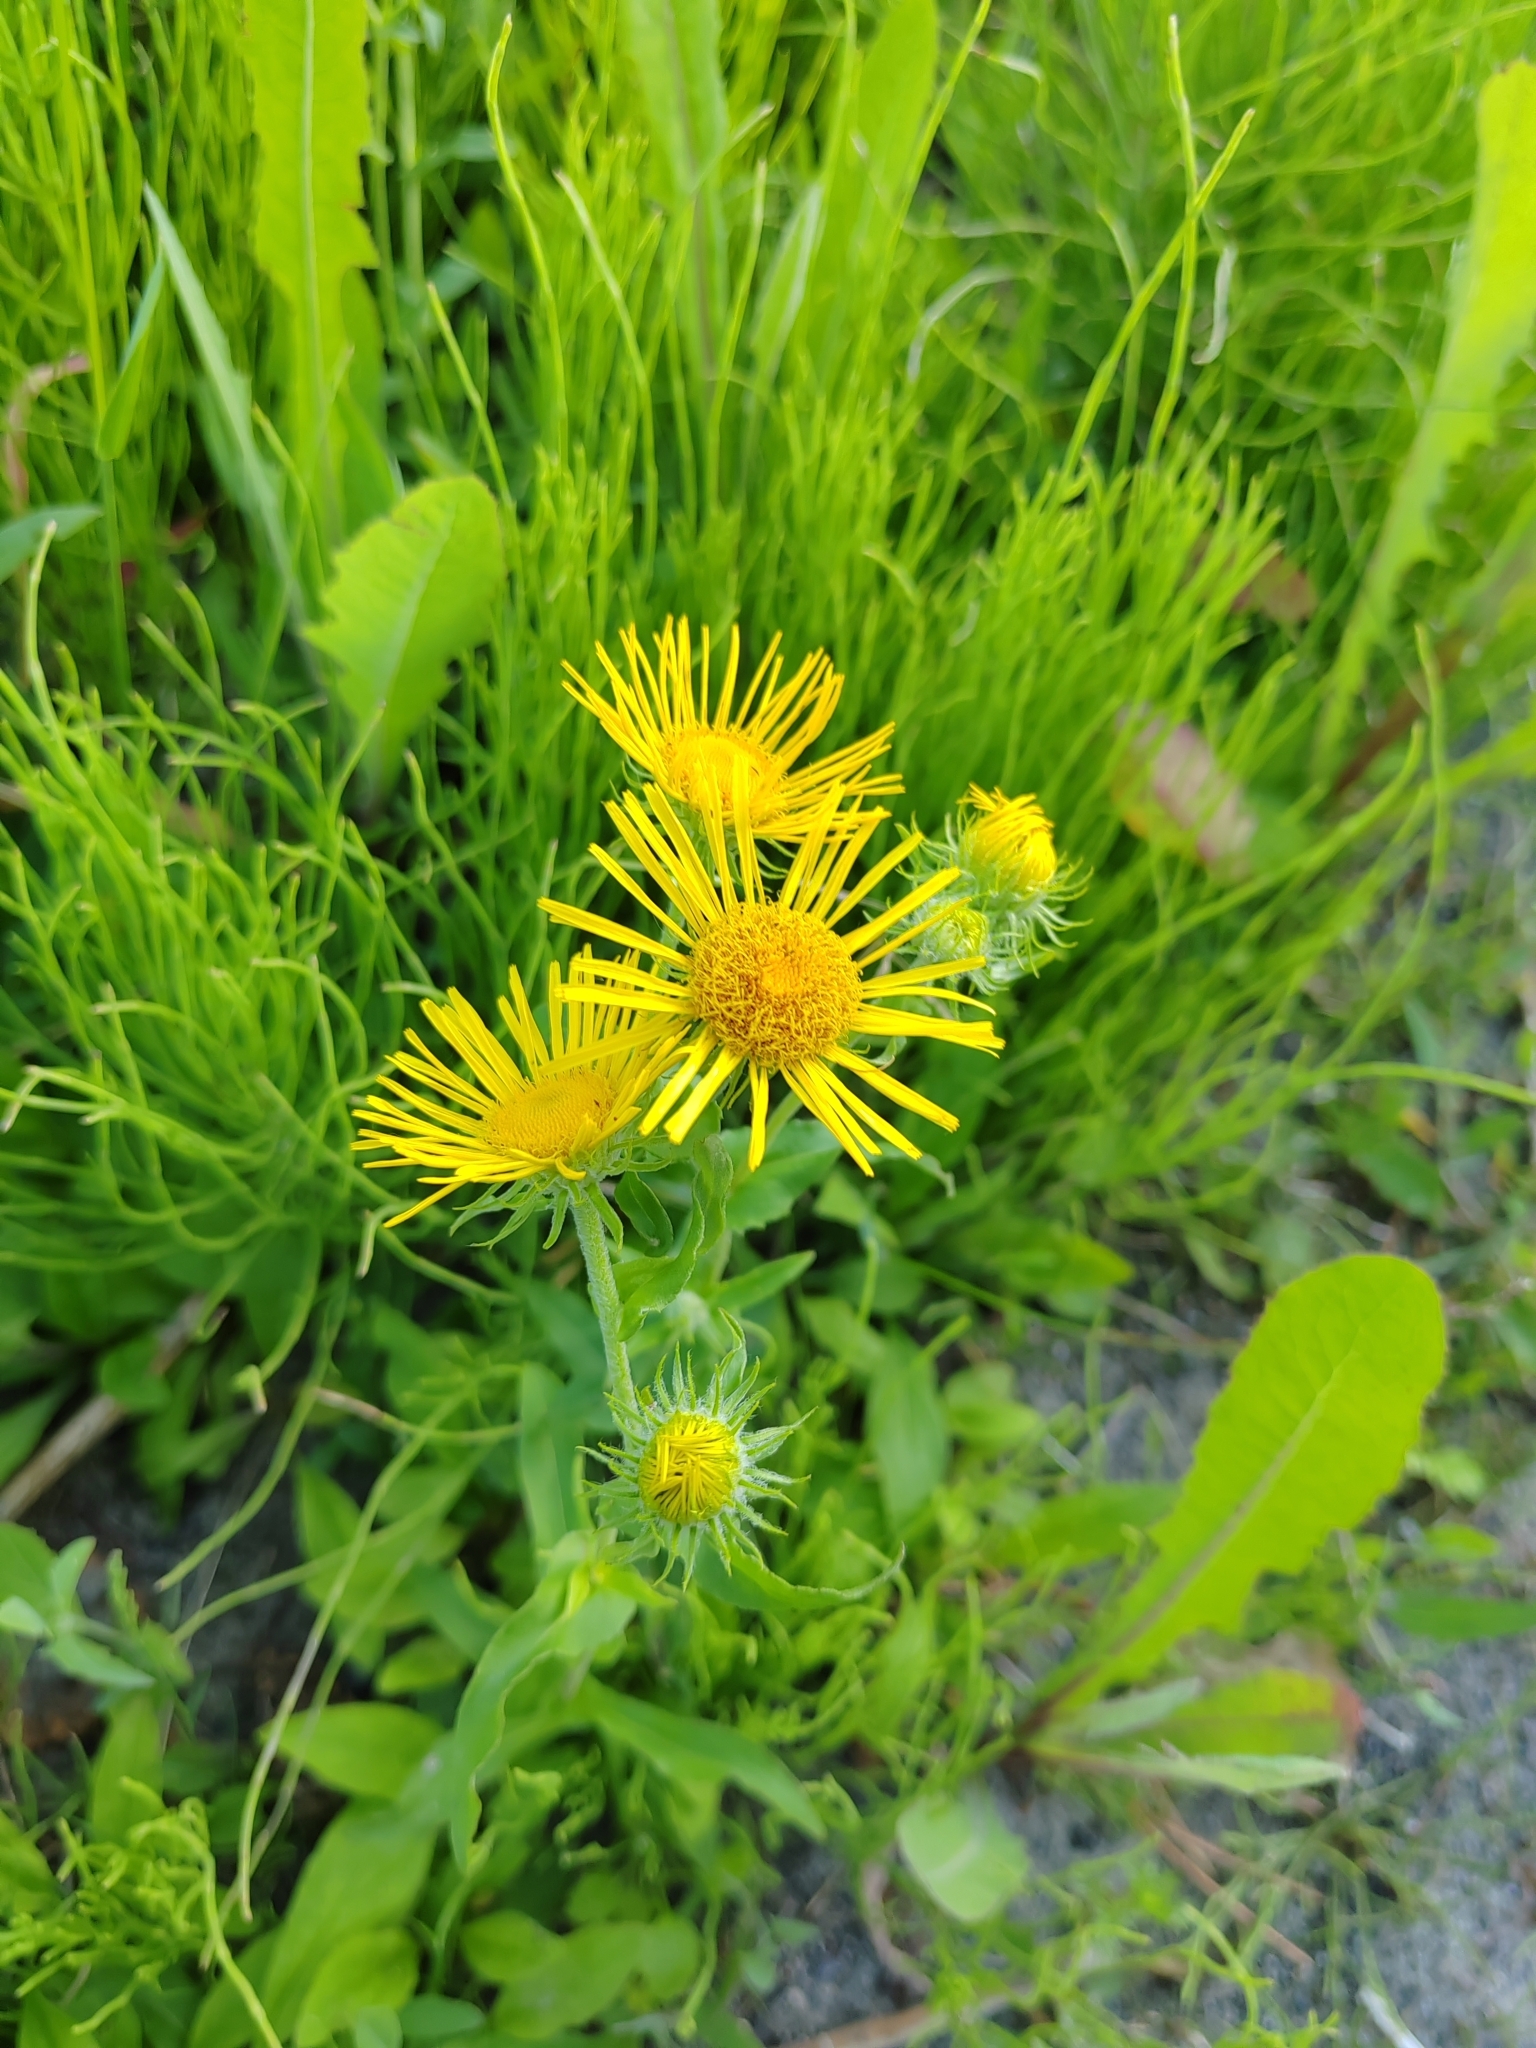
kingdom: Plantae
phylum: Tracheophyta
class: Magnoliopsida
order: Asterales
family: Asteraceae
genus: Pentanema
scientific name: Pentanema britannicum
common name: British elecampane
